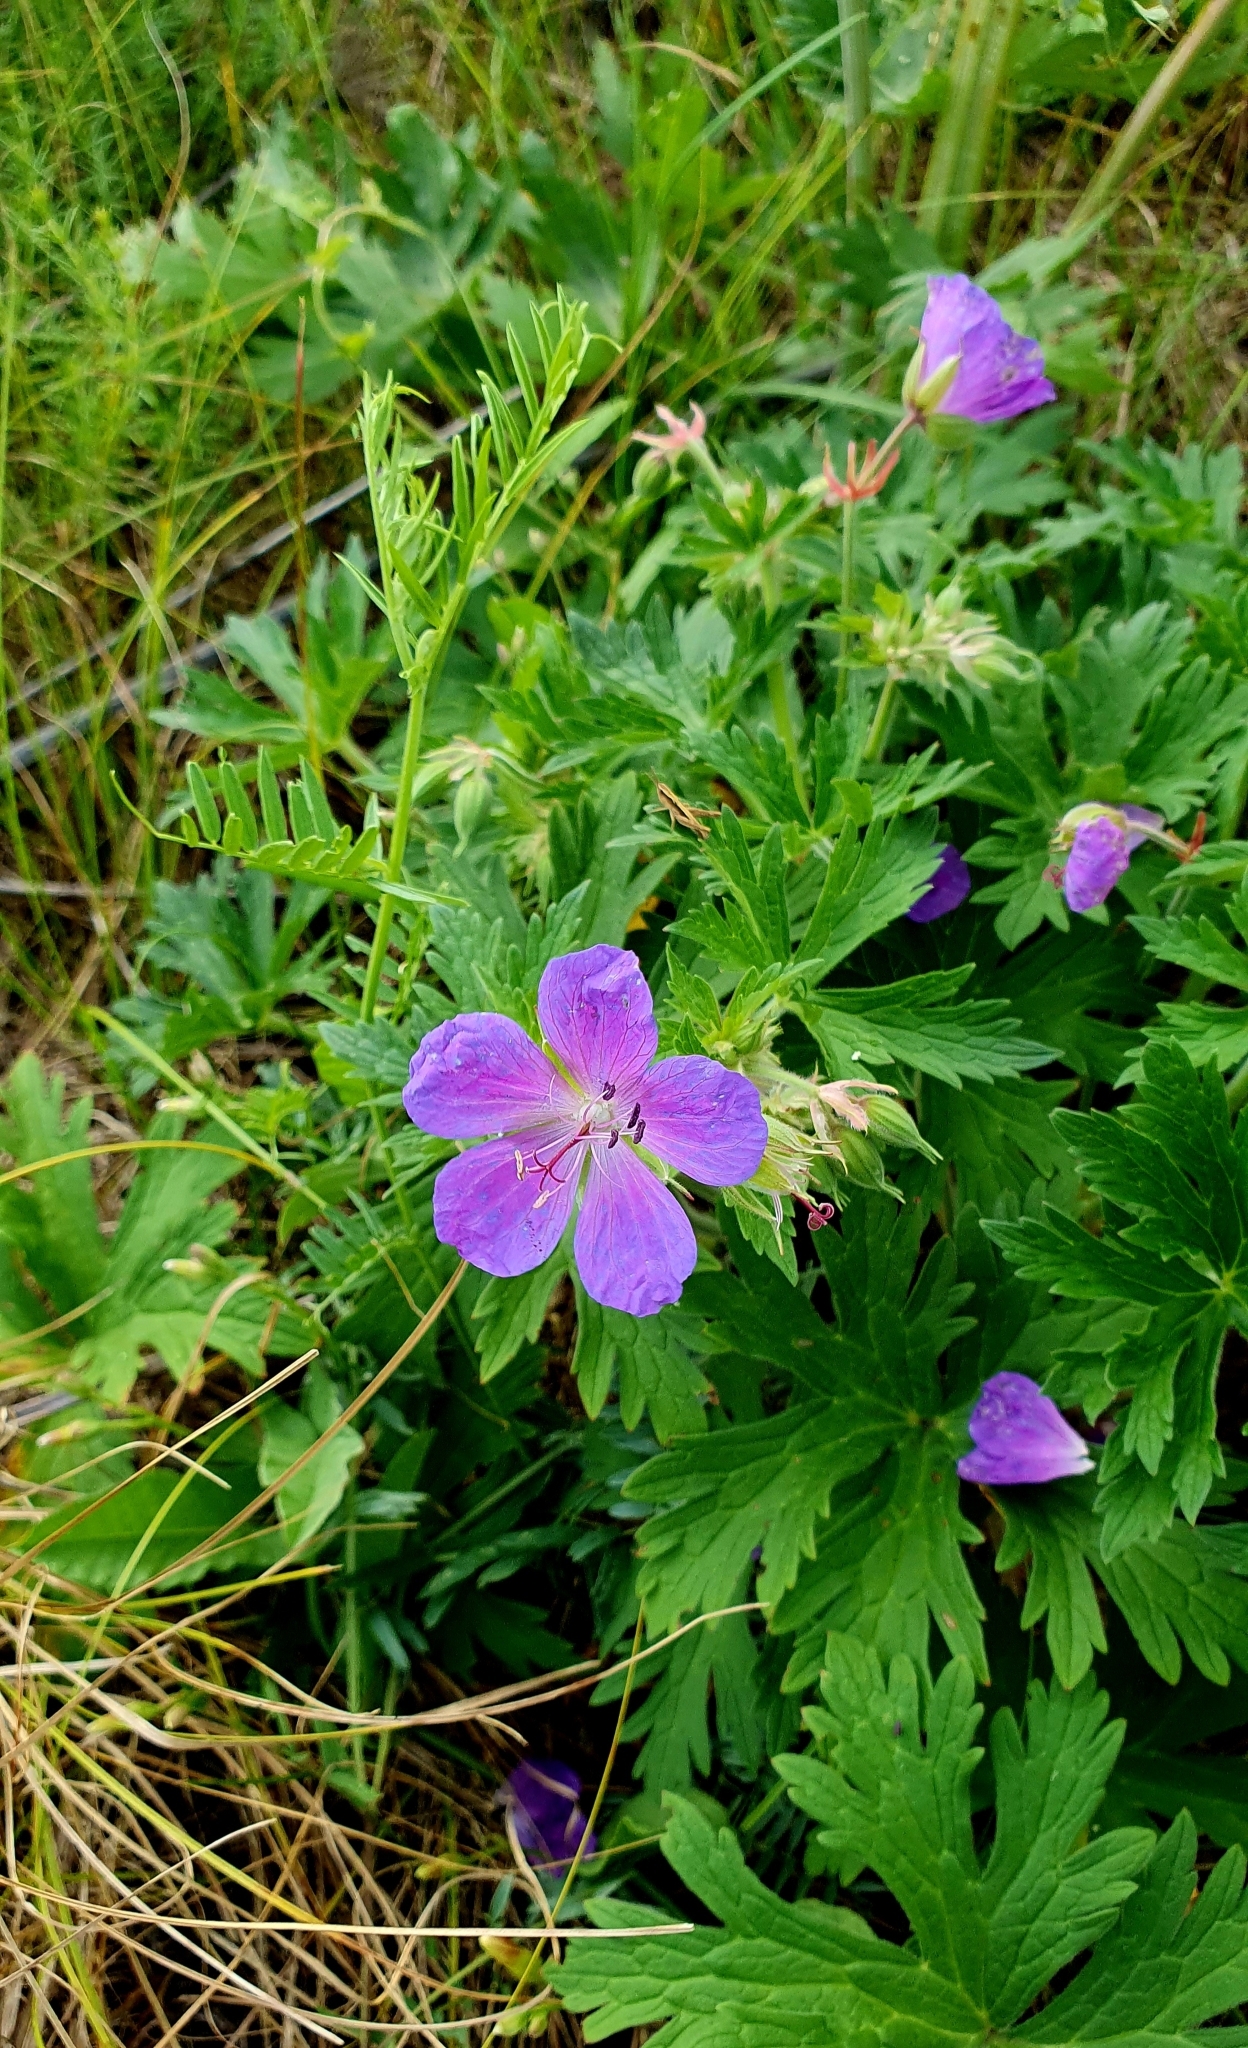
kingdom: Plantae
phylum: Tracheophyta
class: Magnoliopsida
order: Geraniales
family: Geraniaceae
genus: Geranium
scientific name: Geranium pratense
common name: Meadow crane's-bill
